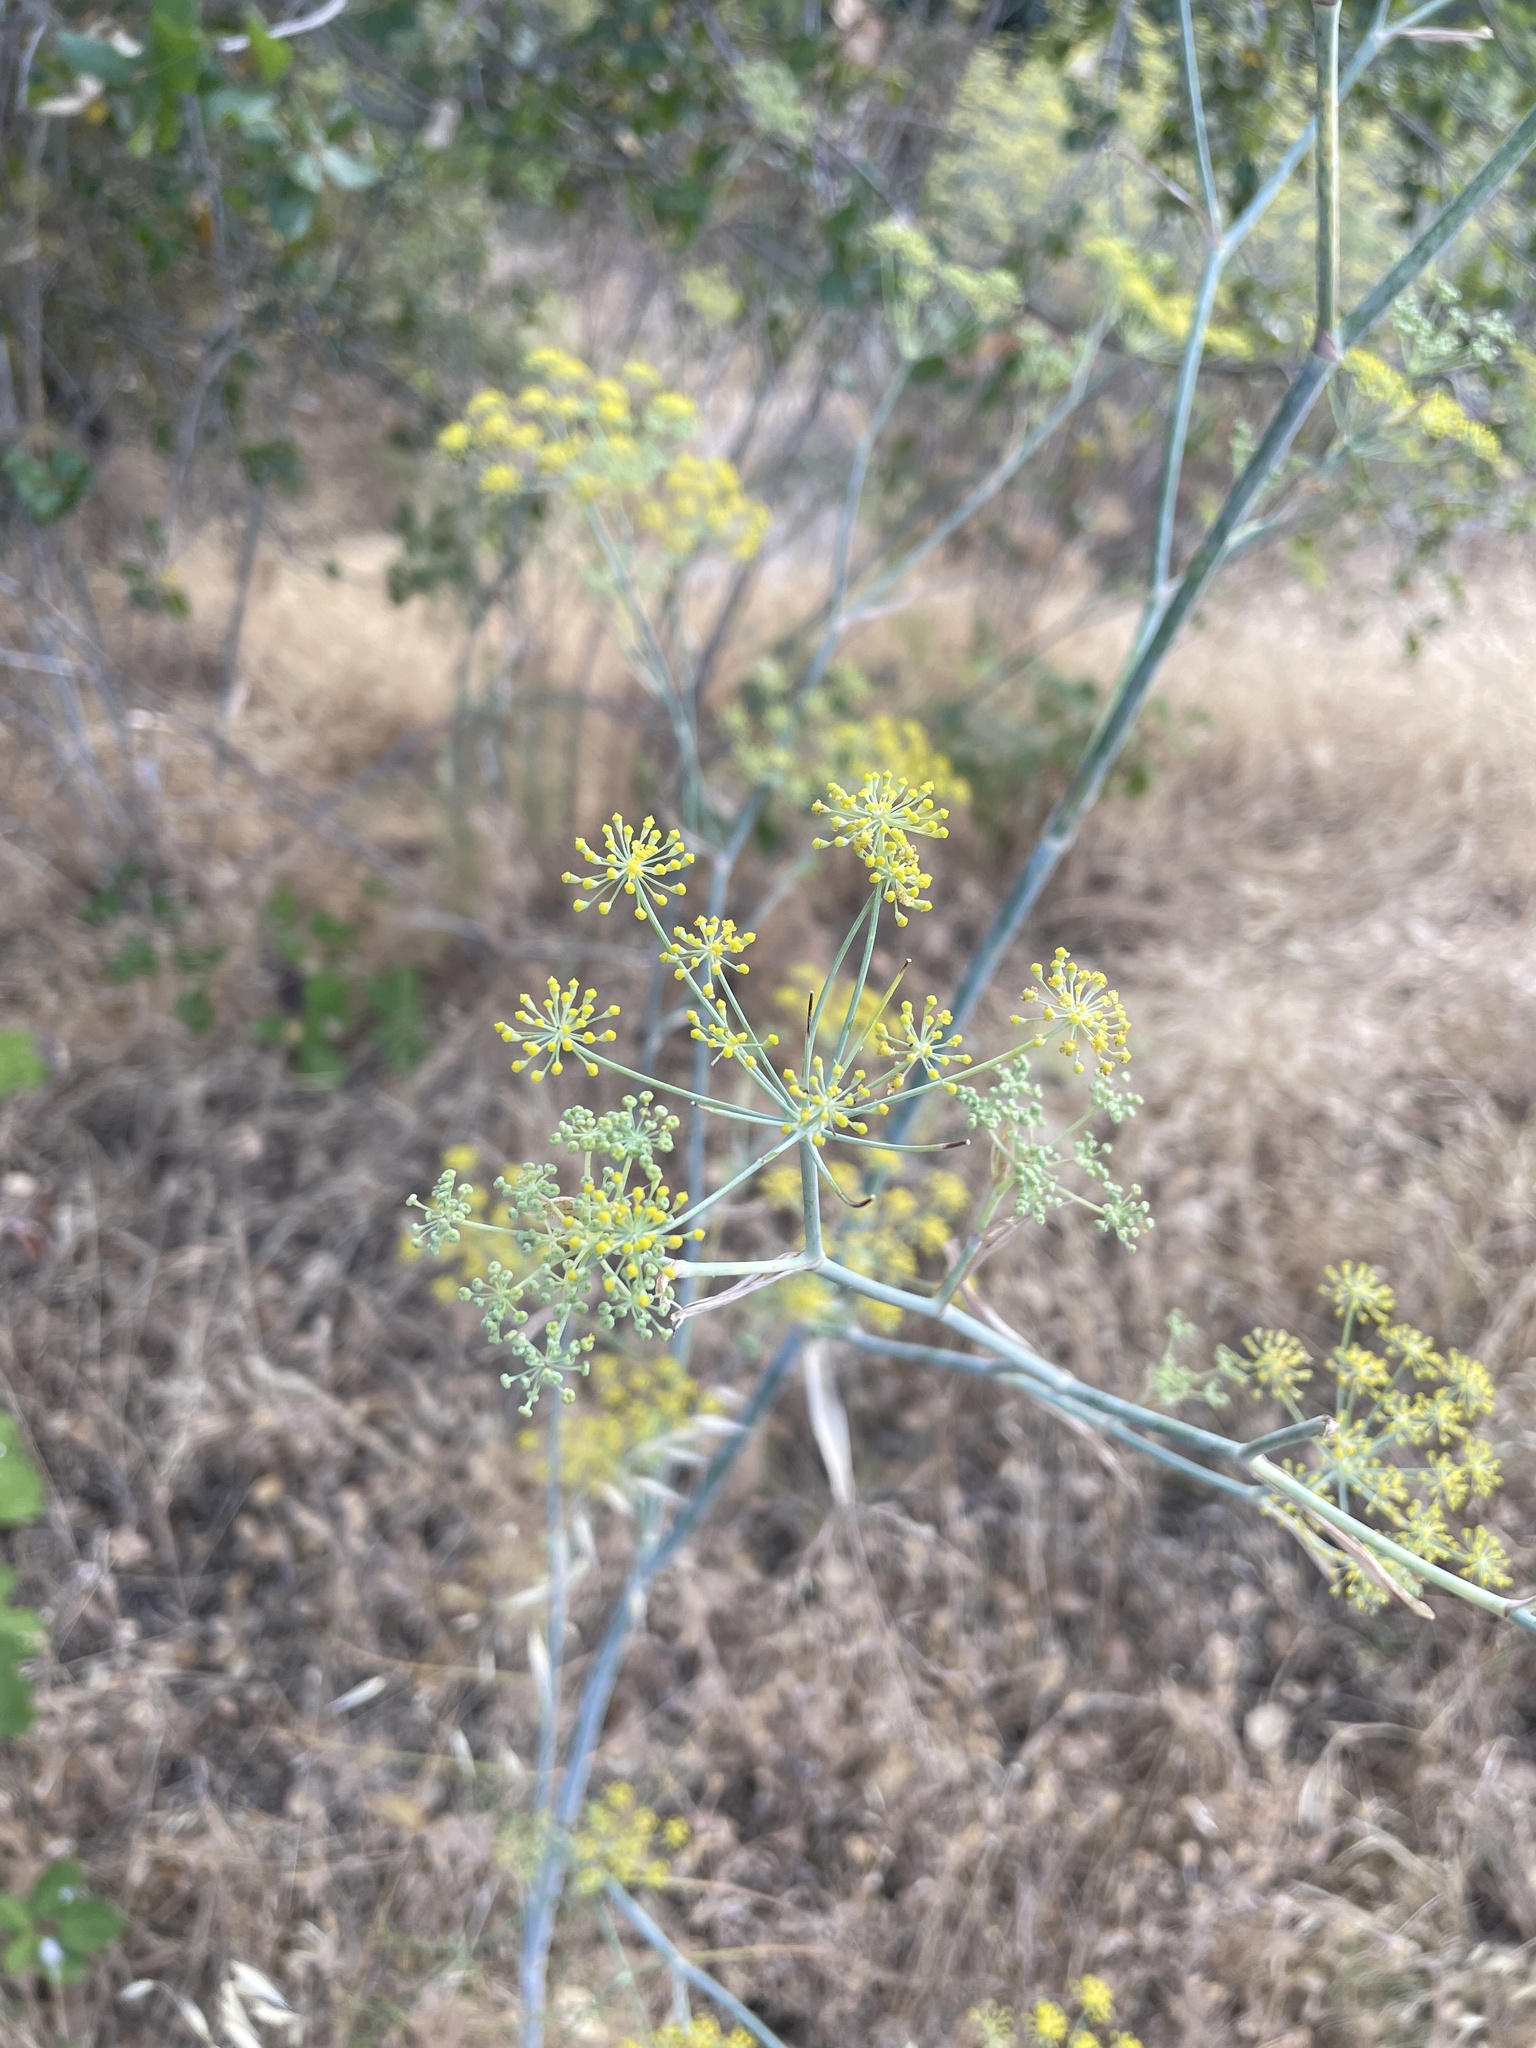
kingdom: Plantae
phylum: Tracheophyta
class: Magnoliopsida
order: Apiales
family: Apiaceae
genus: Foeniculum
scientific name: Foeniculum vulgare
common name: Fennel
